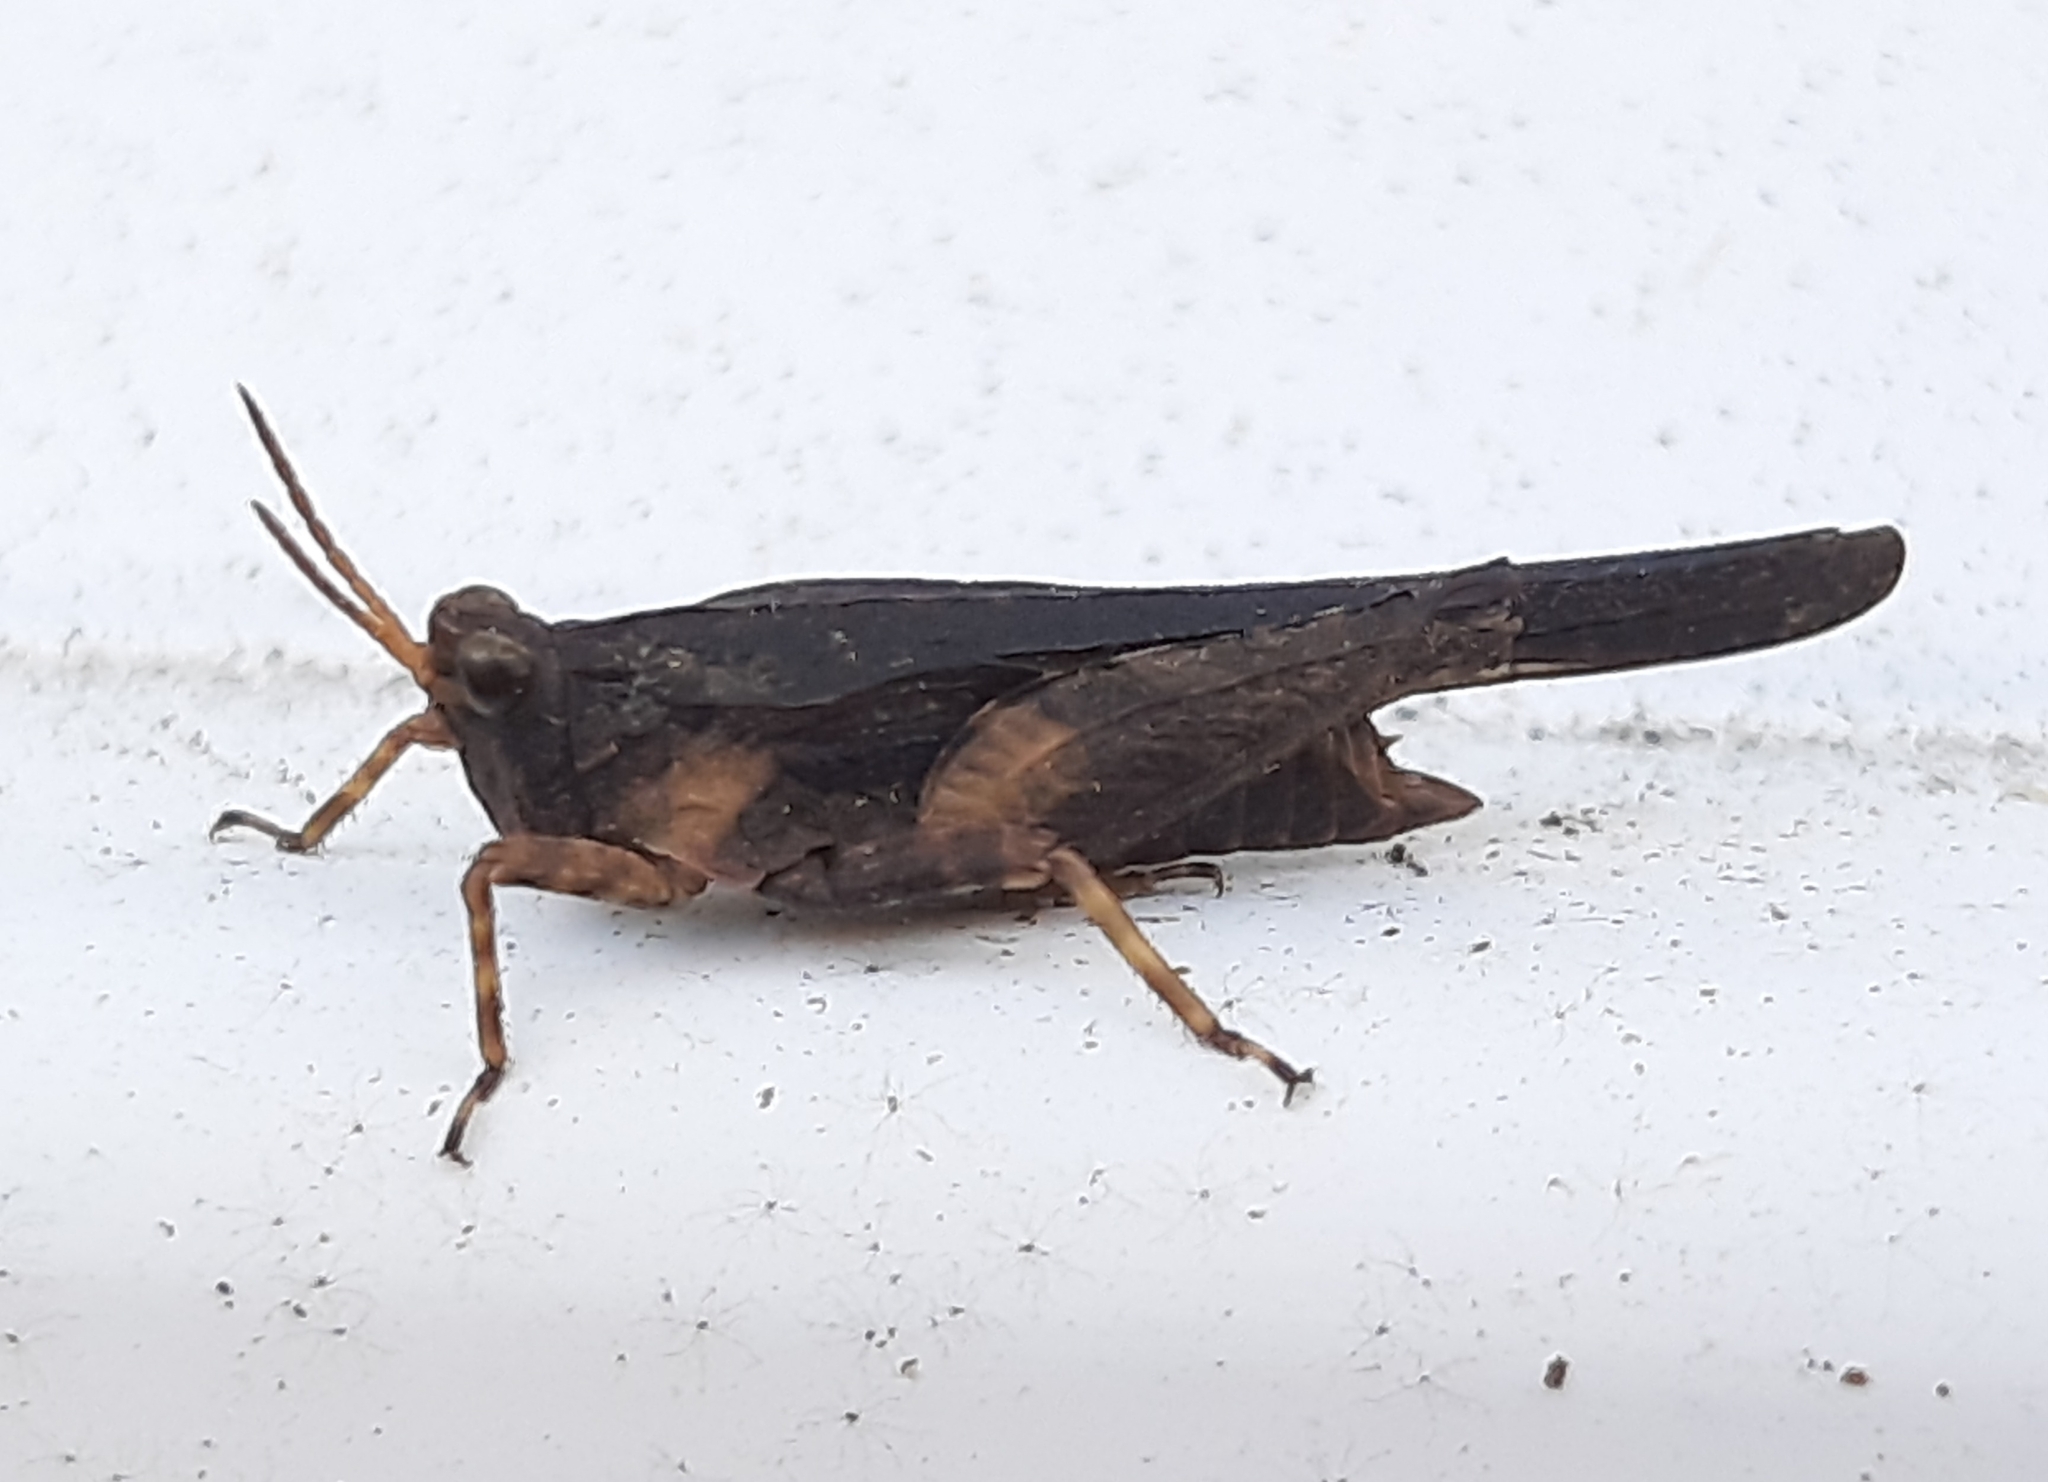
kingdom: Animalia
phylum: Arthropoda
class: Insecta
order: Orthoptera
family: Tetrigidae
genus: Tetrix
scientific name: Tetrix subulata
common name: Slender ground-hopper
